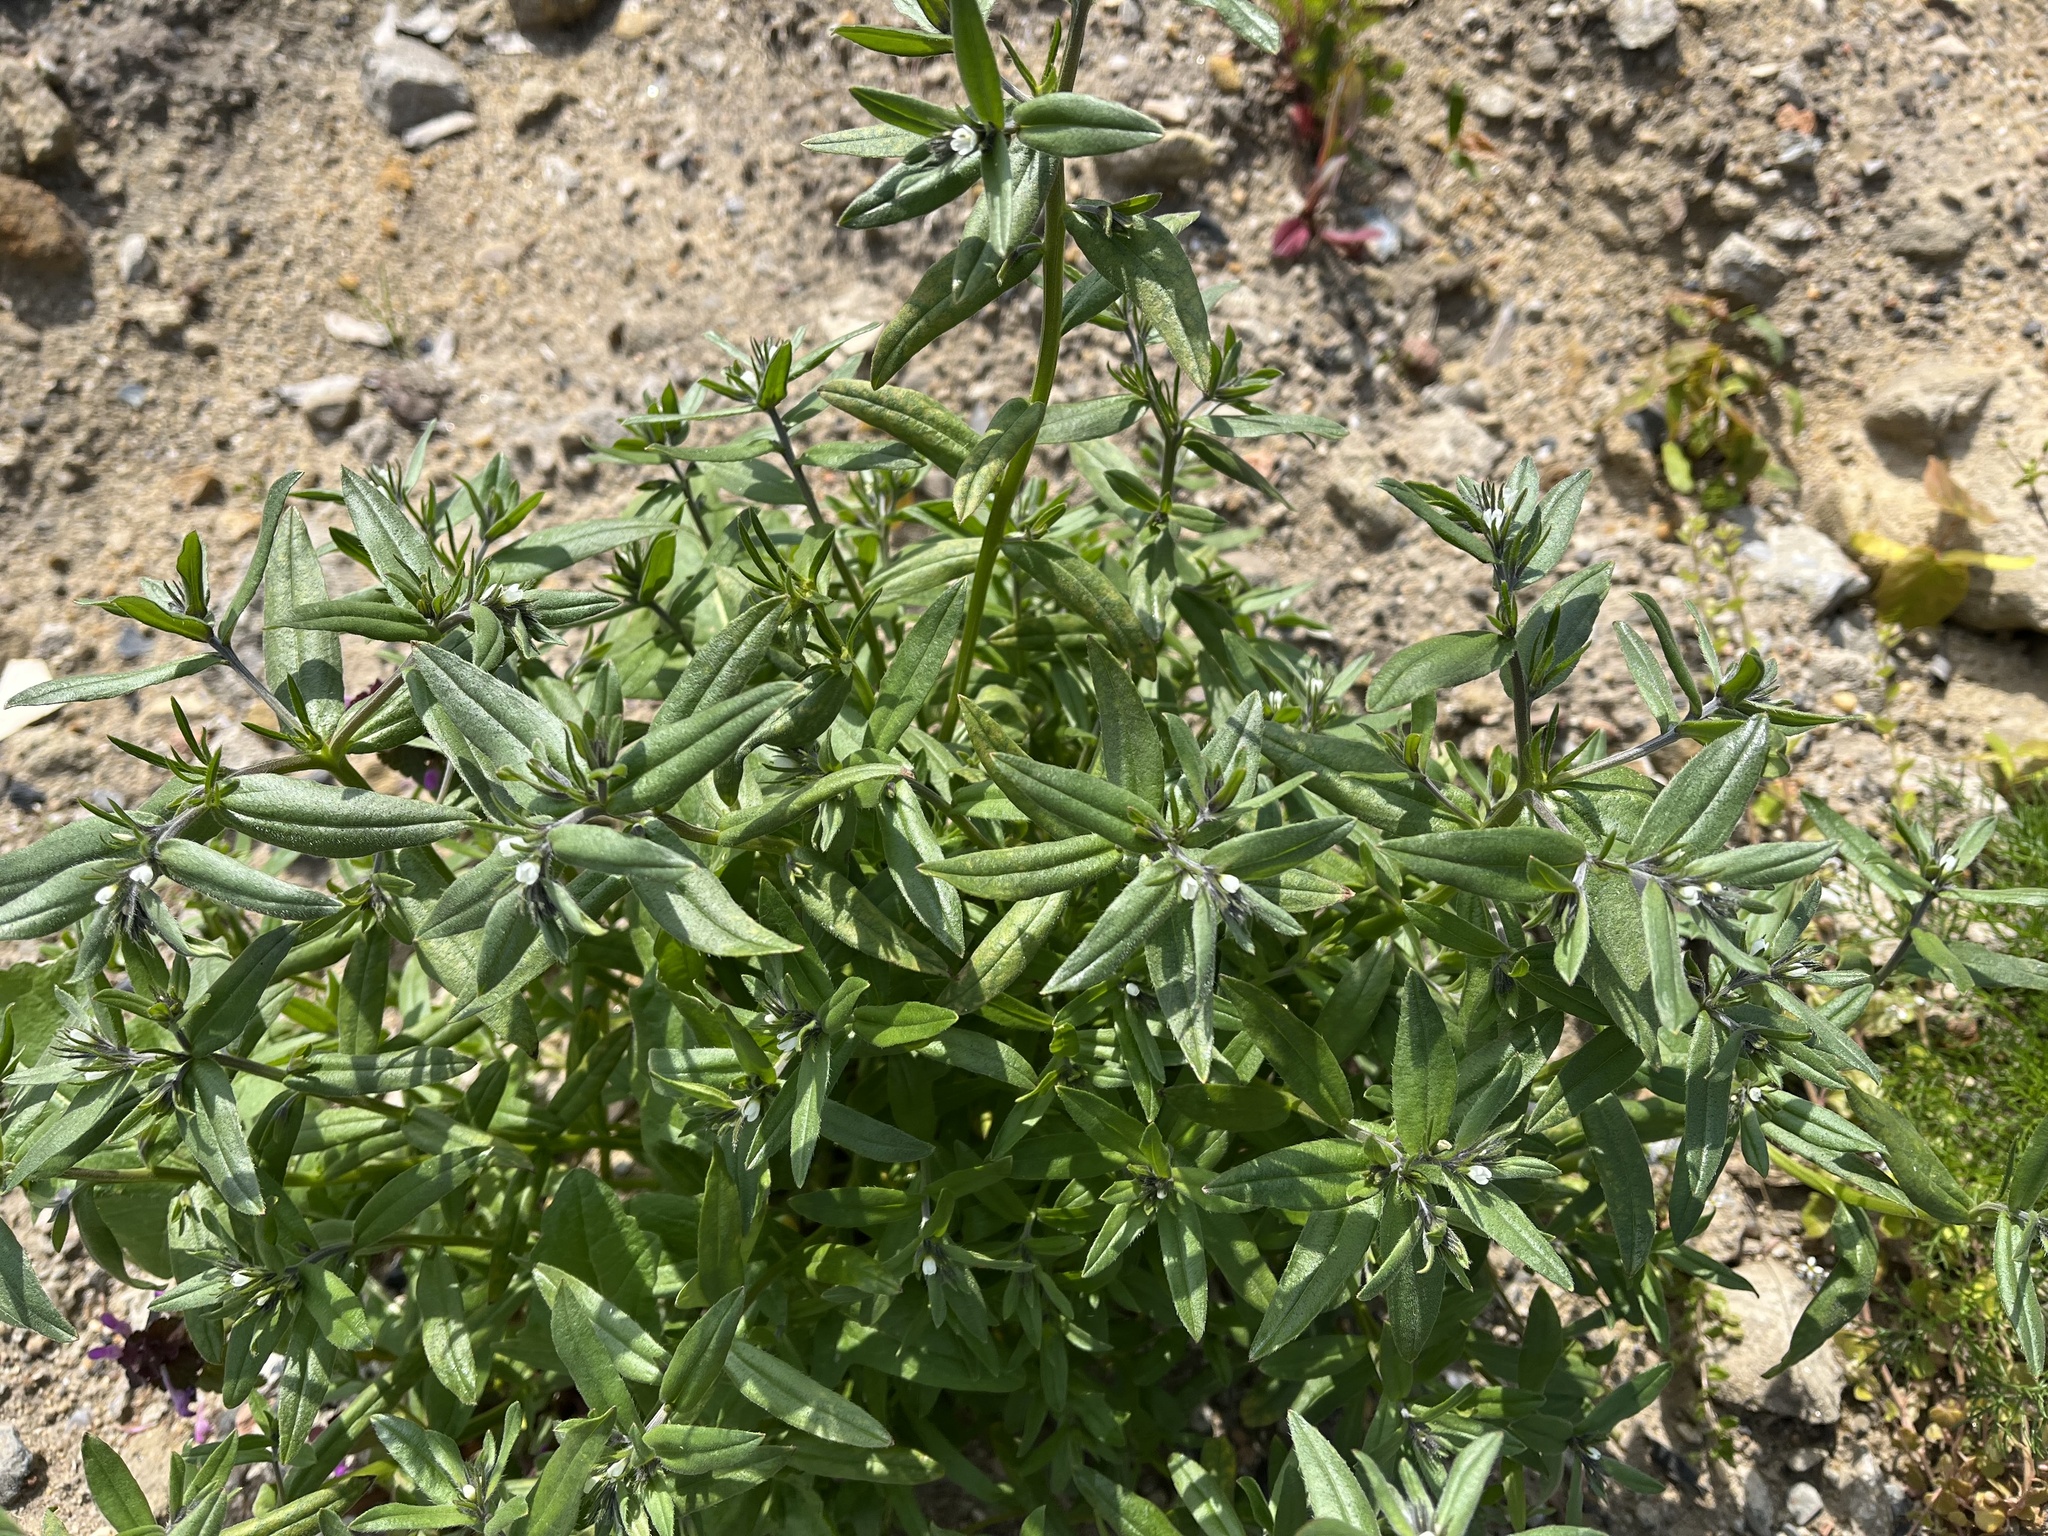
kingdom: Plantae
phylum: Tracheophyta
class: Magnoliopsida
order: Boraginales
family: Boraginaceae
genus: Buglossoides
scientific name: Buglossoides arvensis
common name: Corn gromwell
